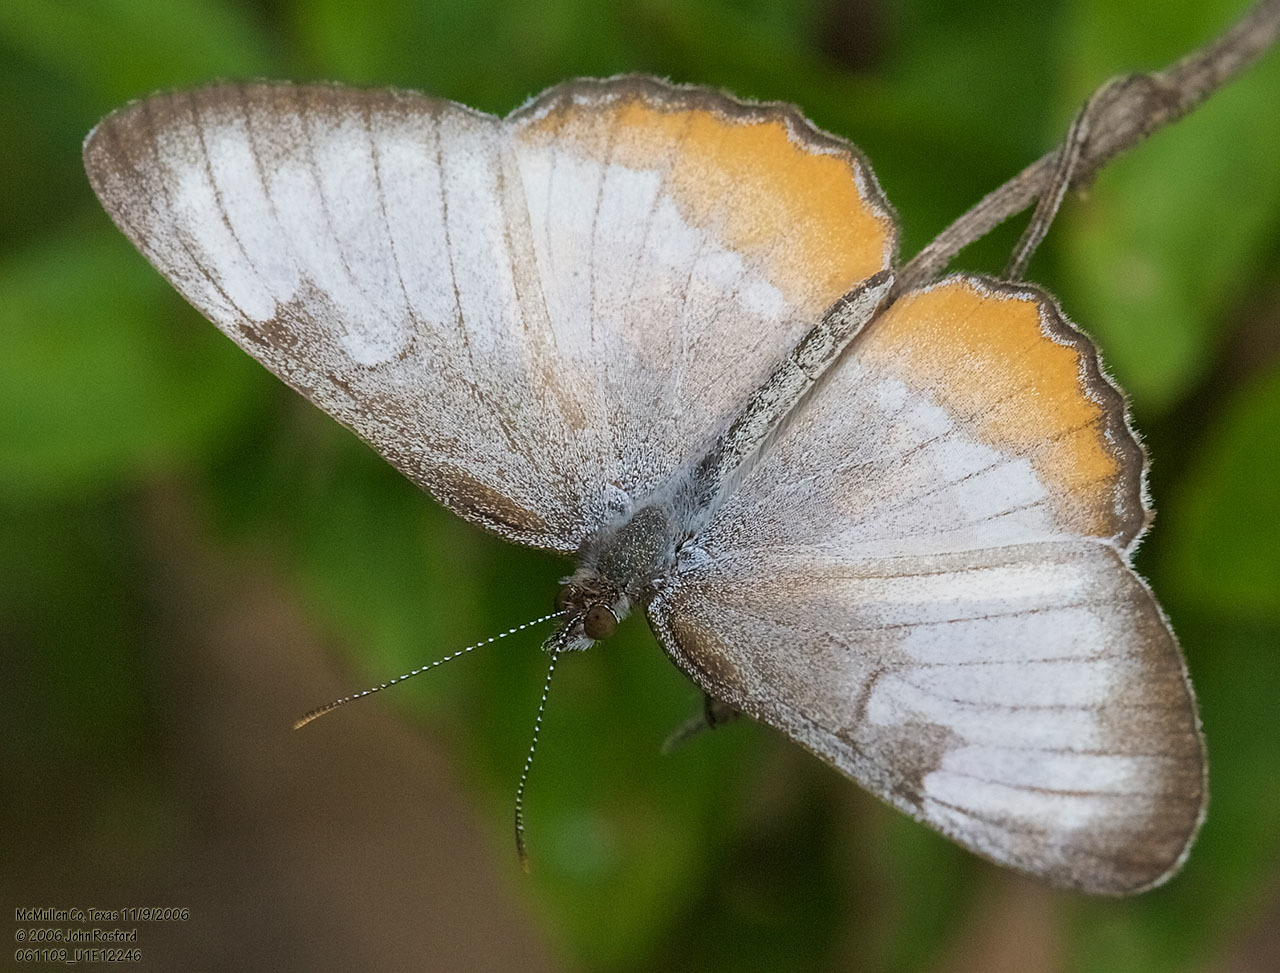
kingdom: Animalia
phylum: Arthropoda
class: Insecta
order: Lepidoptera
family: Nymphalidae
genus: Mestra
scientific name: Mestra amymone
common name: Common mestra
